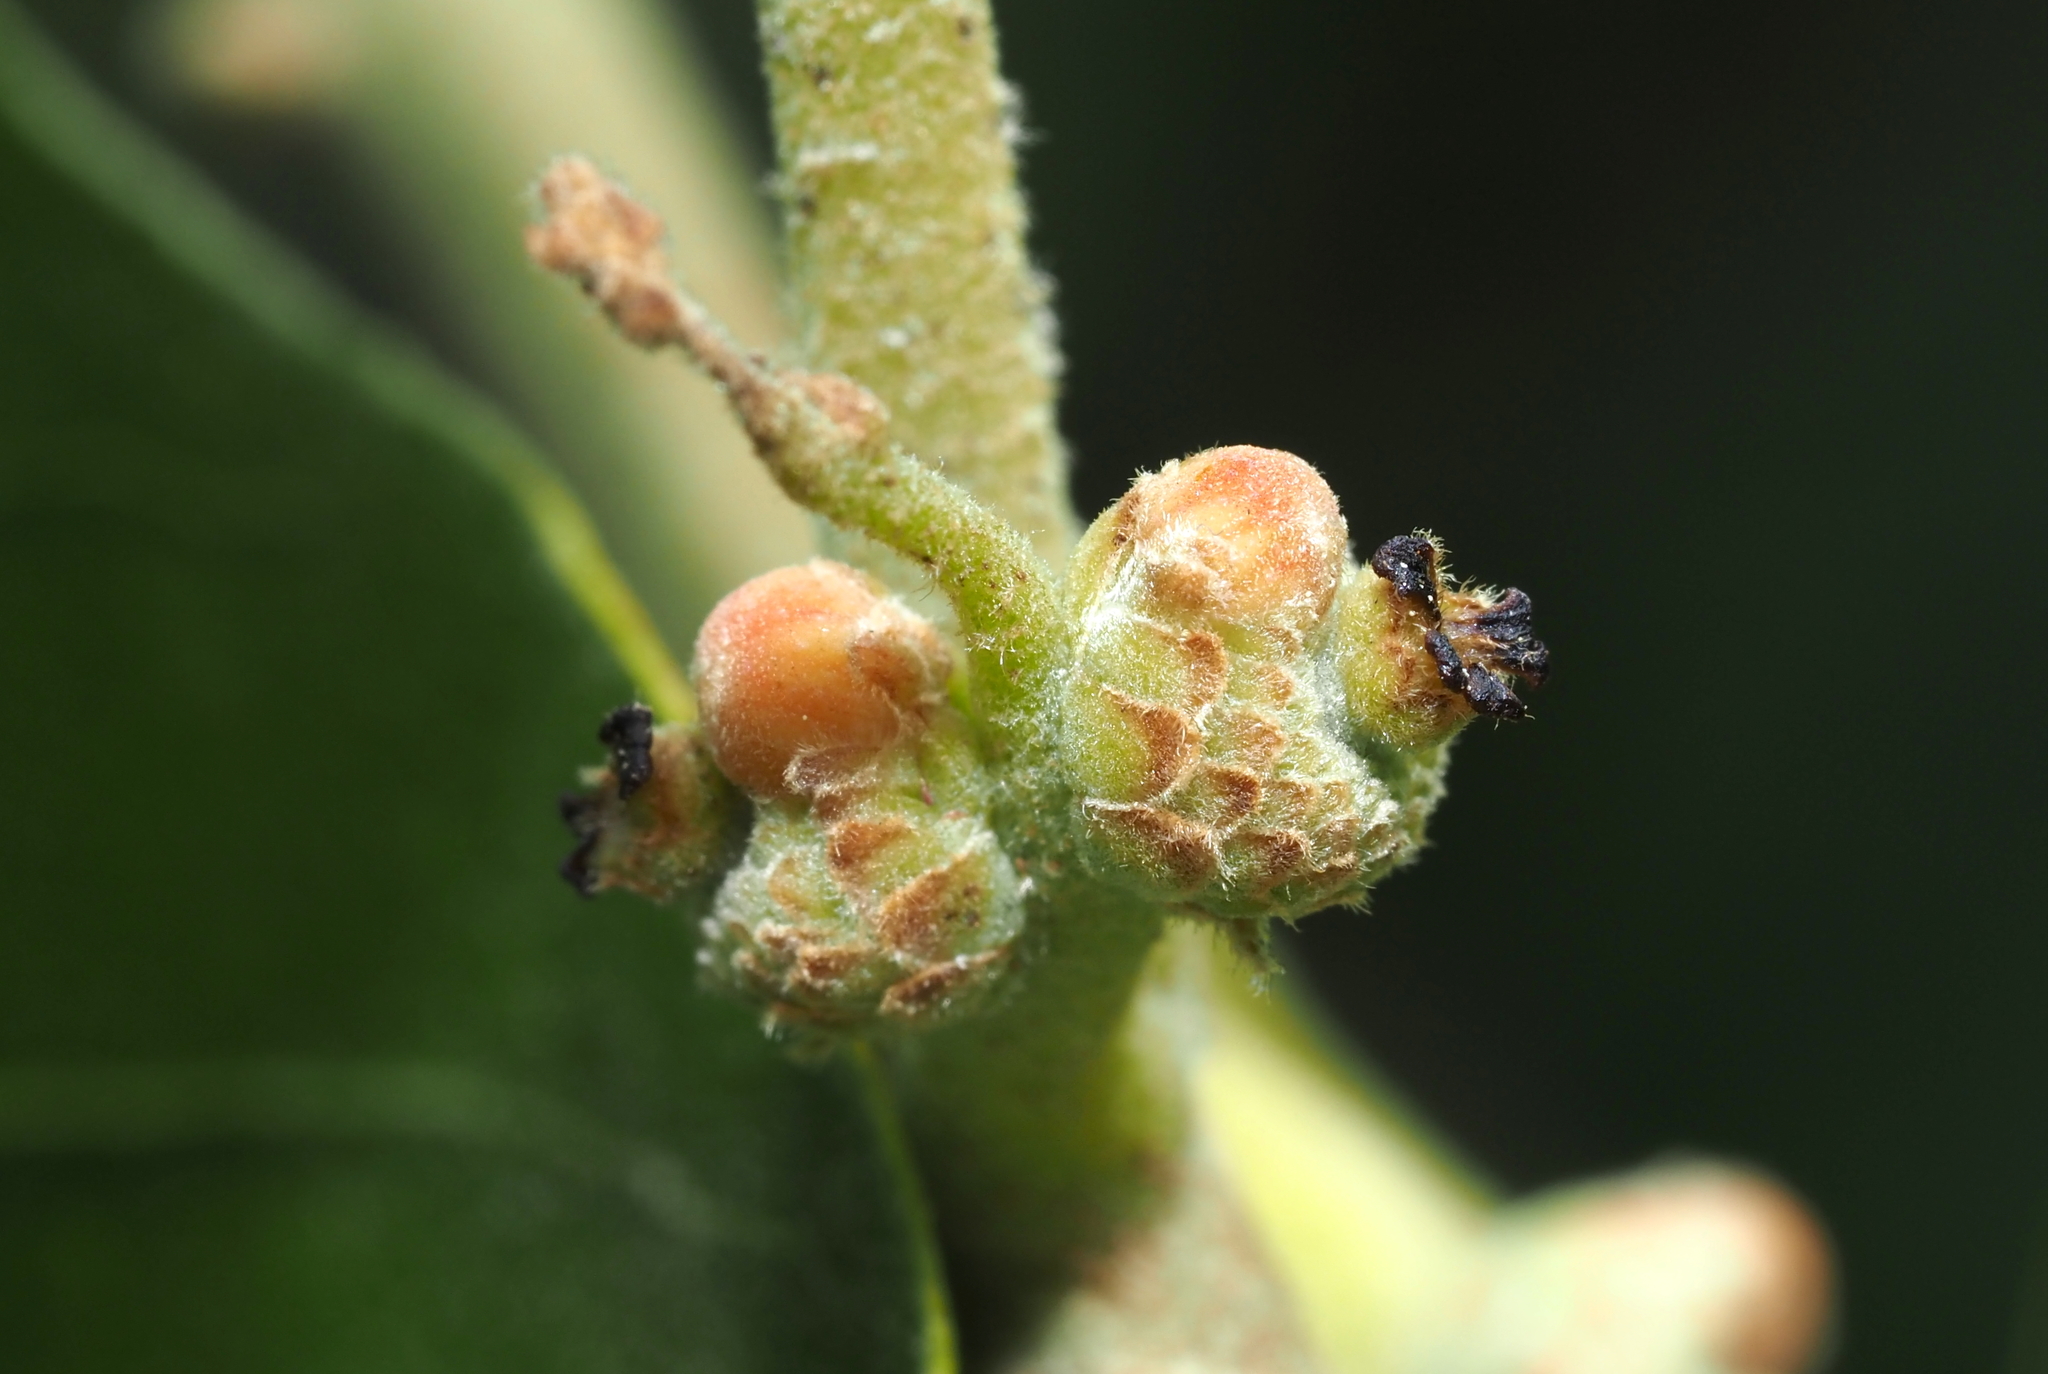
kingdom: Animalia
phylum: Arthropoda
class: Insecta
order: Hymenoptera
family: Cynipidae
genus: Callirhytis
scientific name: Callirhytis
